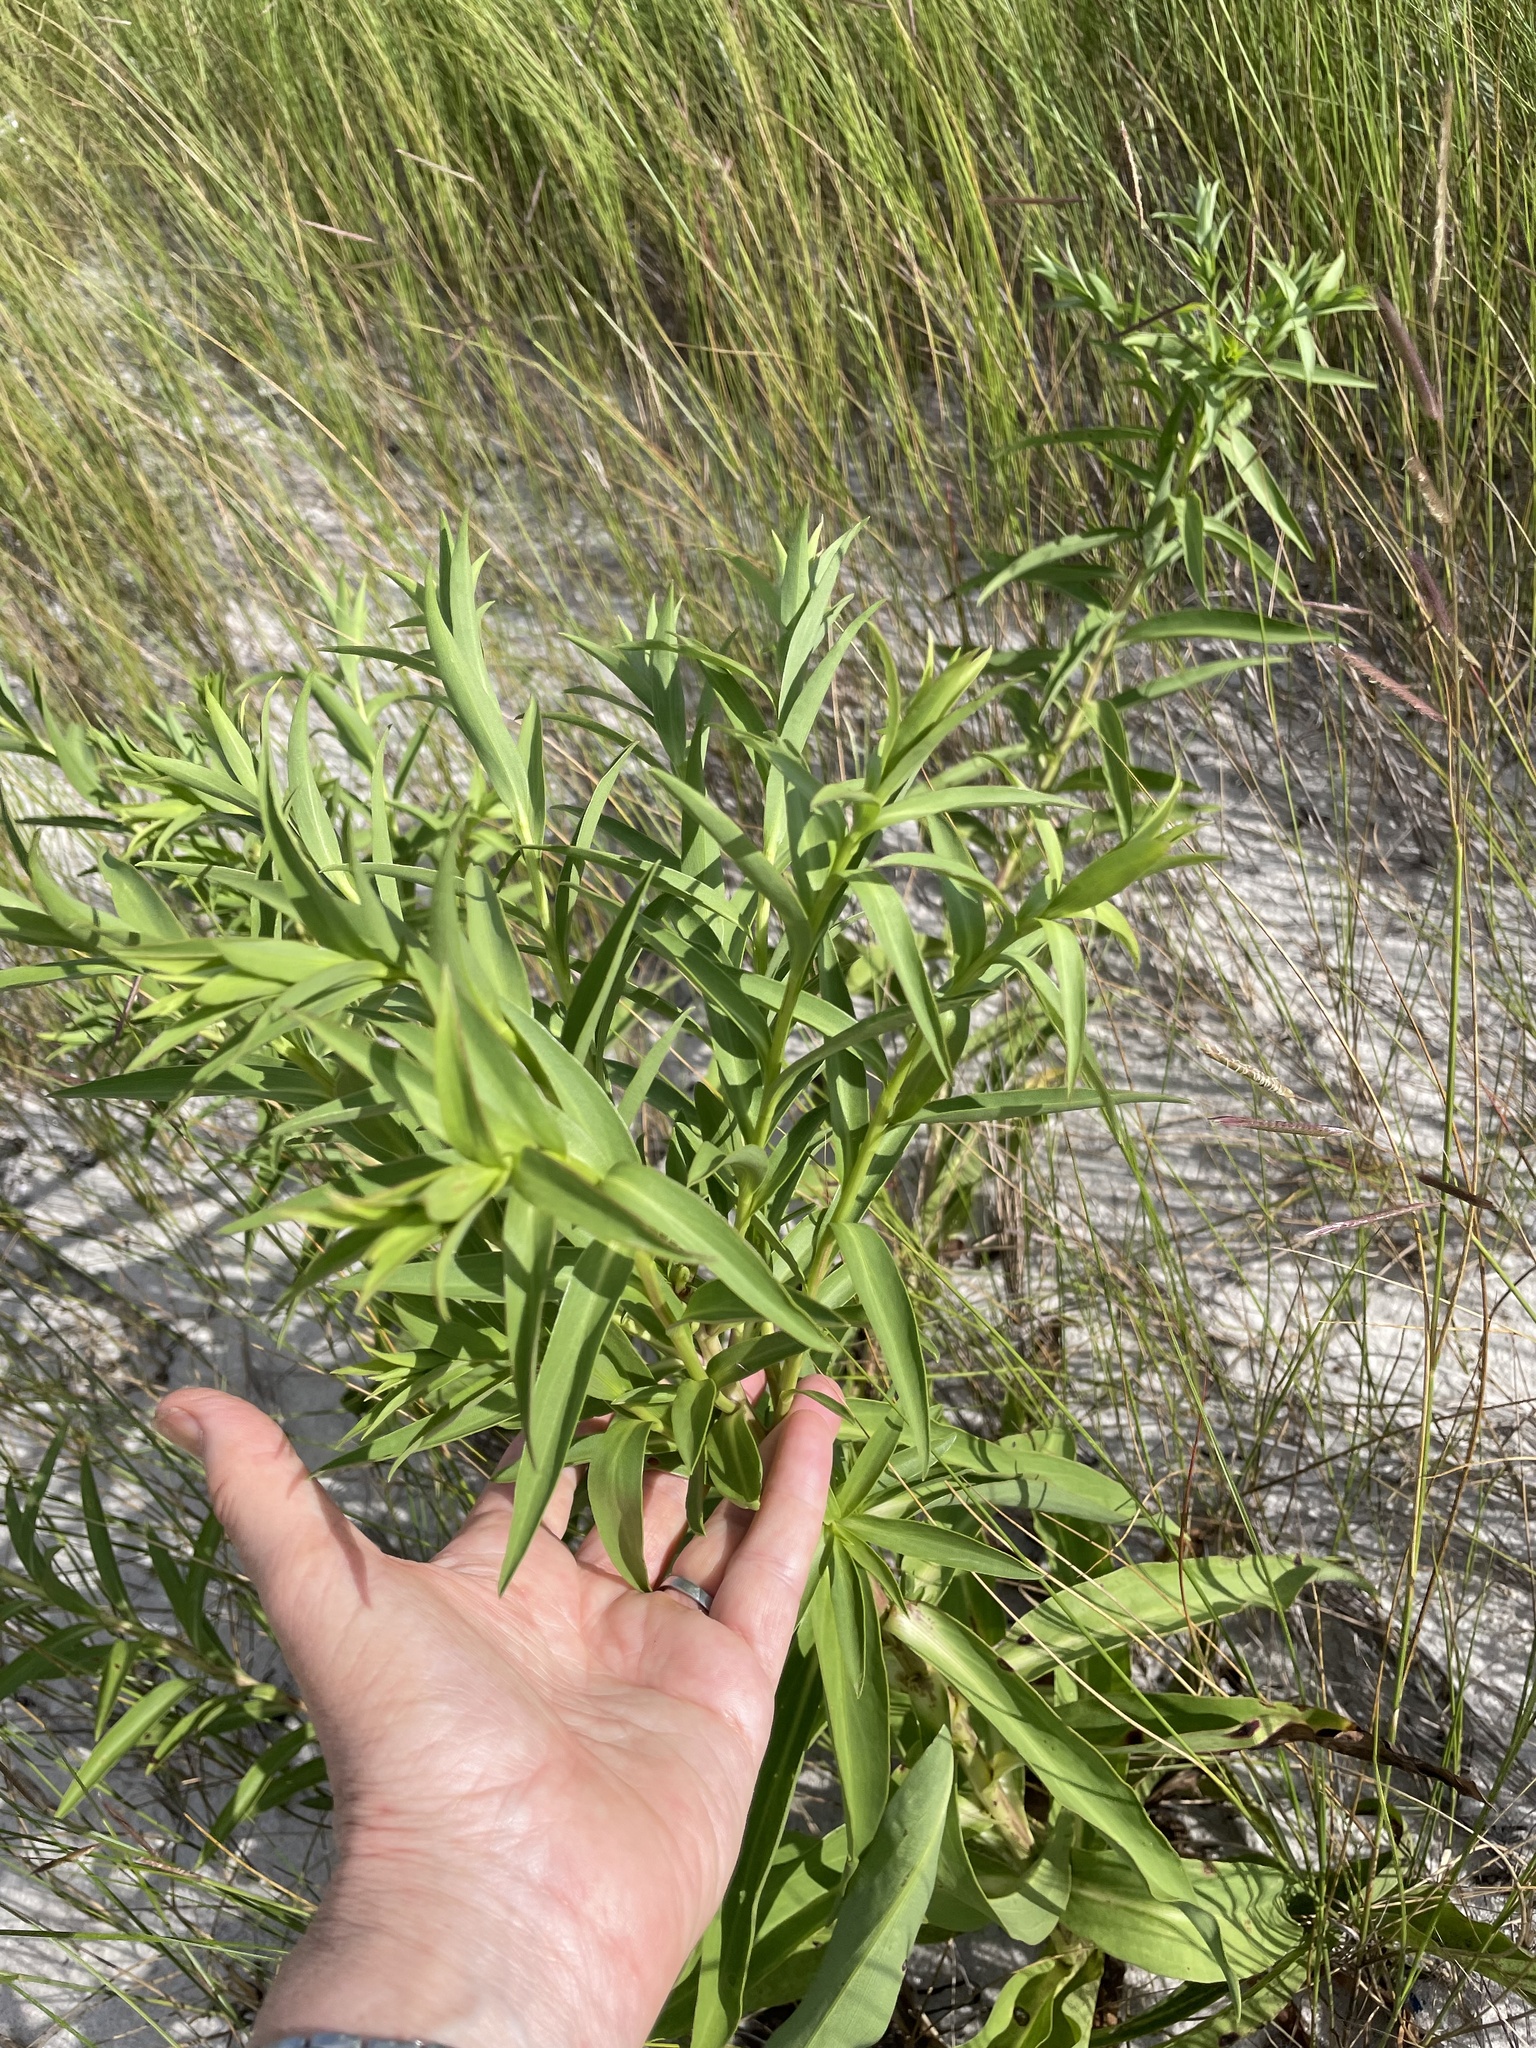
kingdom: Plantae
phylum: Tracheophyta
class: Magnoliopsida
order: Asterales
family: Asteraceae
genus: Solidago
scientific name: Solidago sempervirens
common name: Salt-marsh goldenrod
